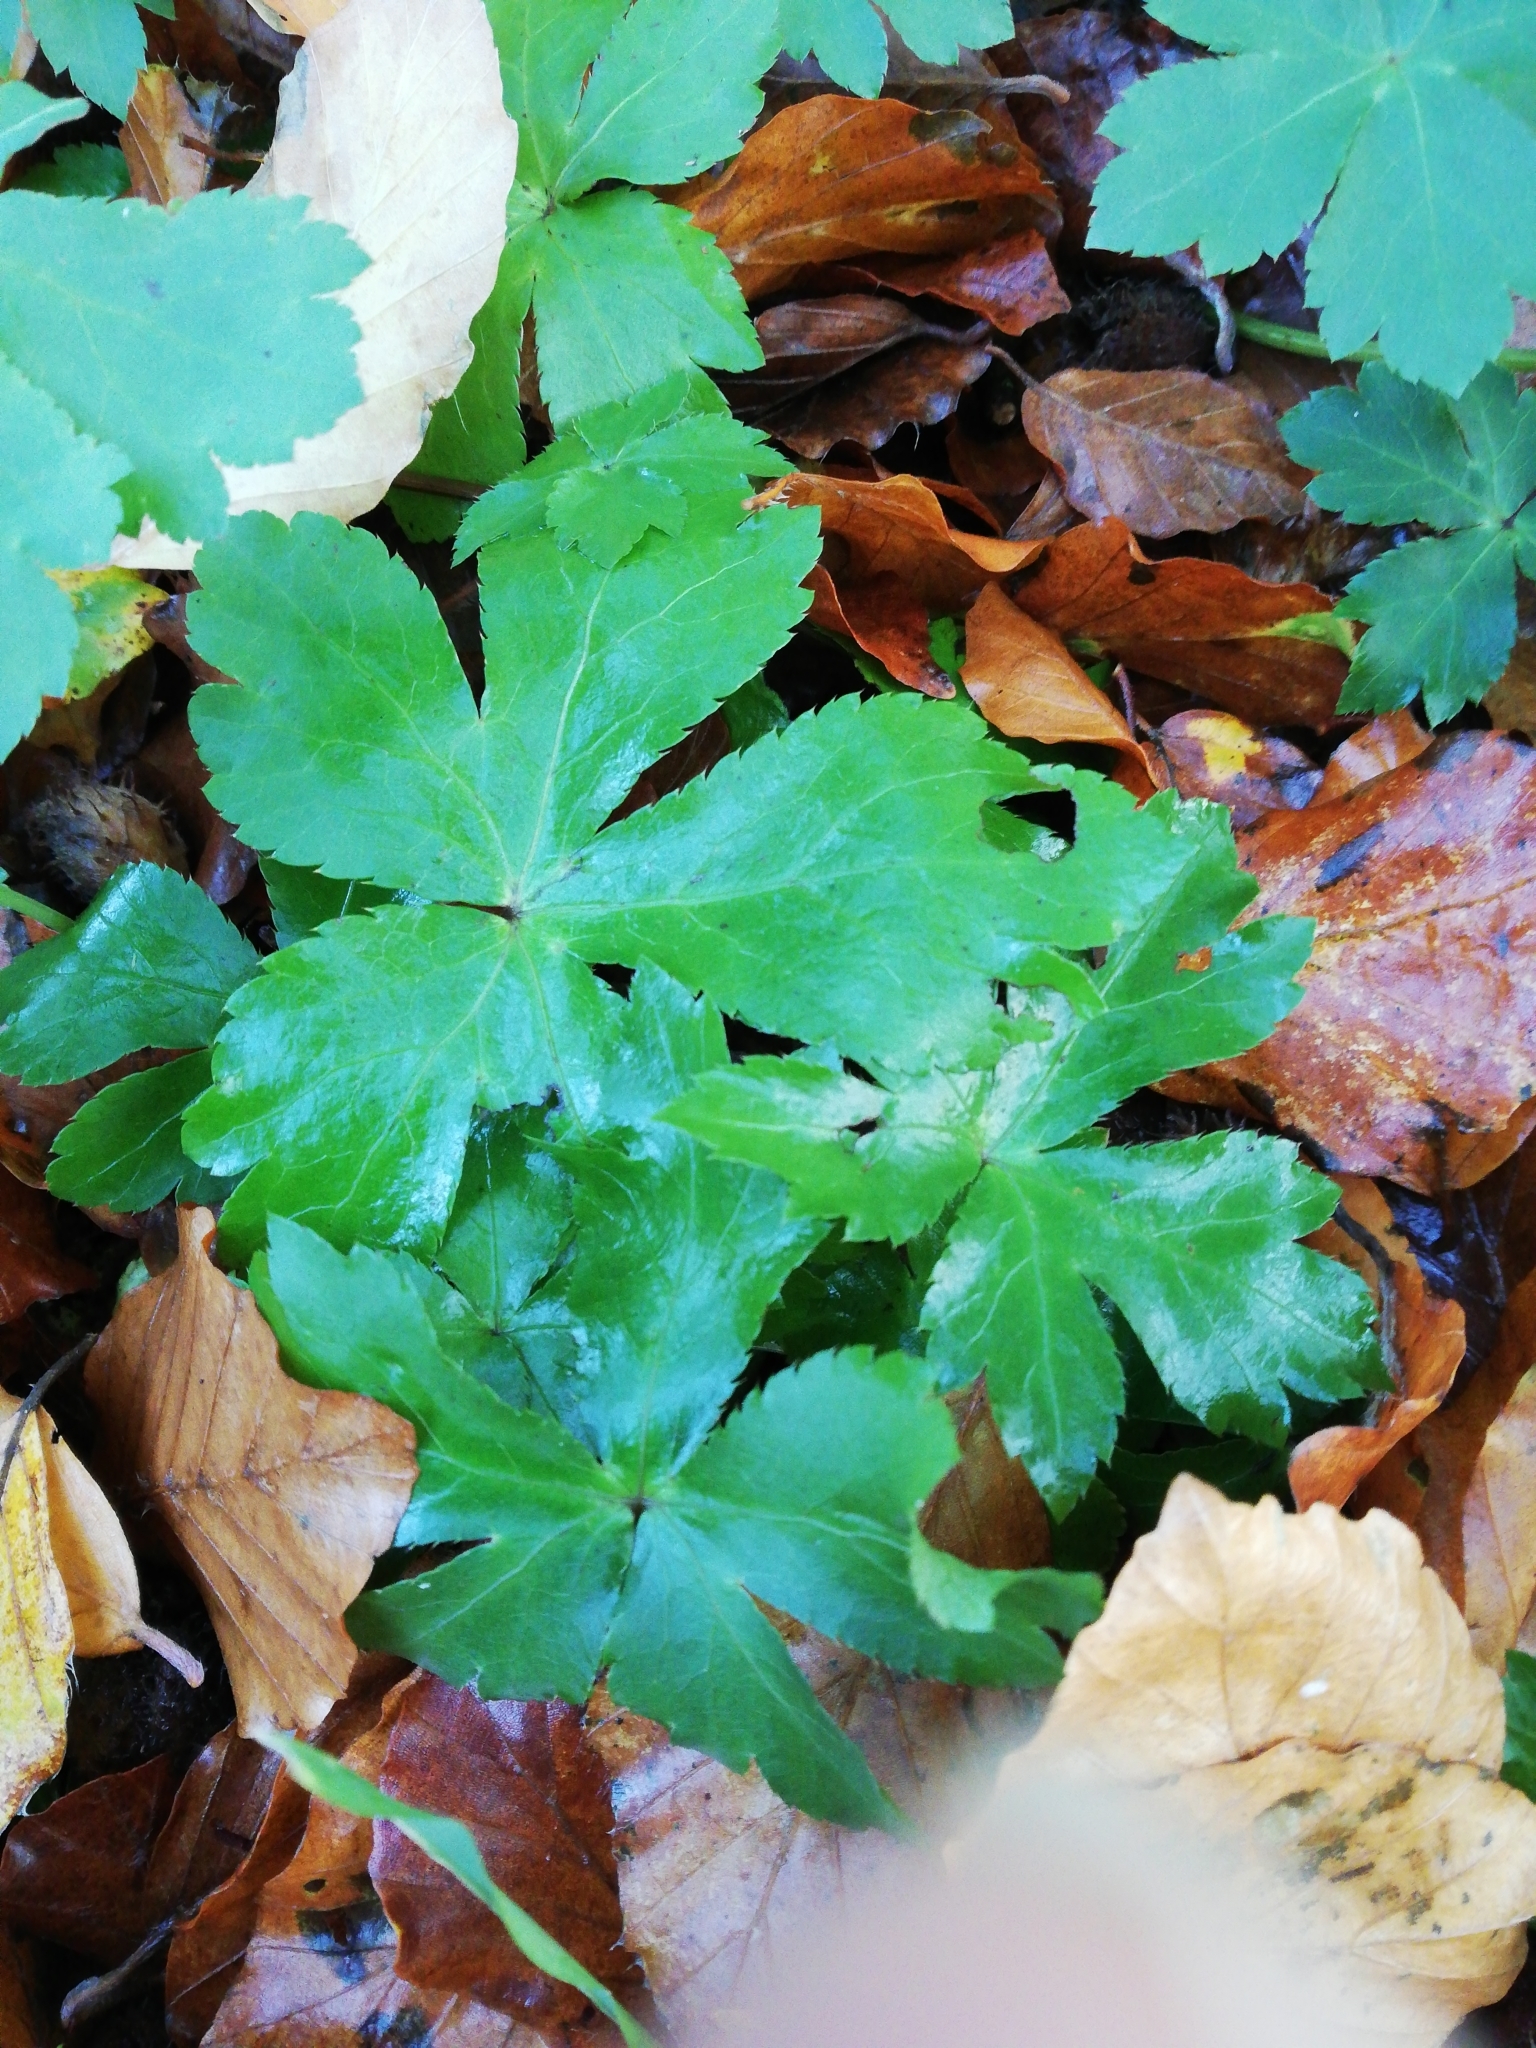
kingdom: Plantae
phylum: Tracheophyta
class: Magnoliopsida
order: Apiales
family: Apiaceae
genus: Sanicula
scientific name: Sanicula europaea
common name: Sanicle
